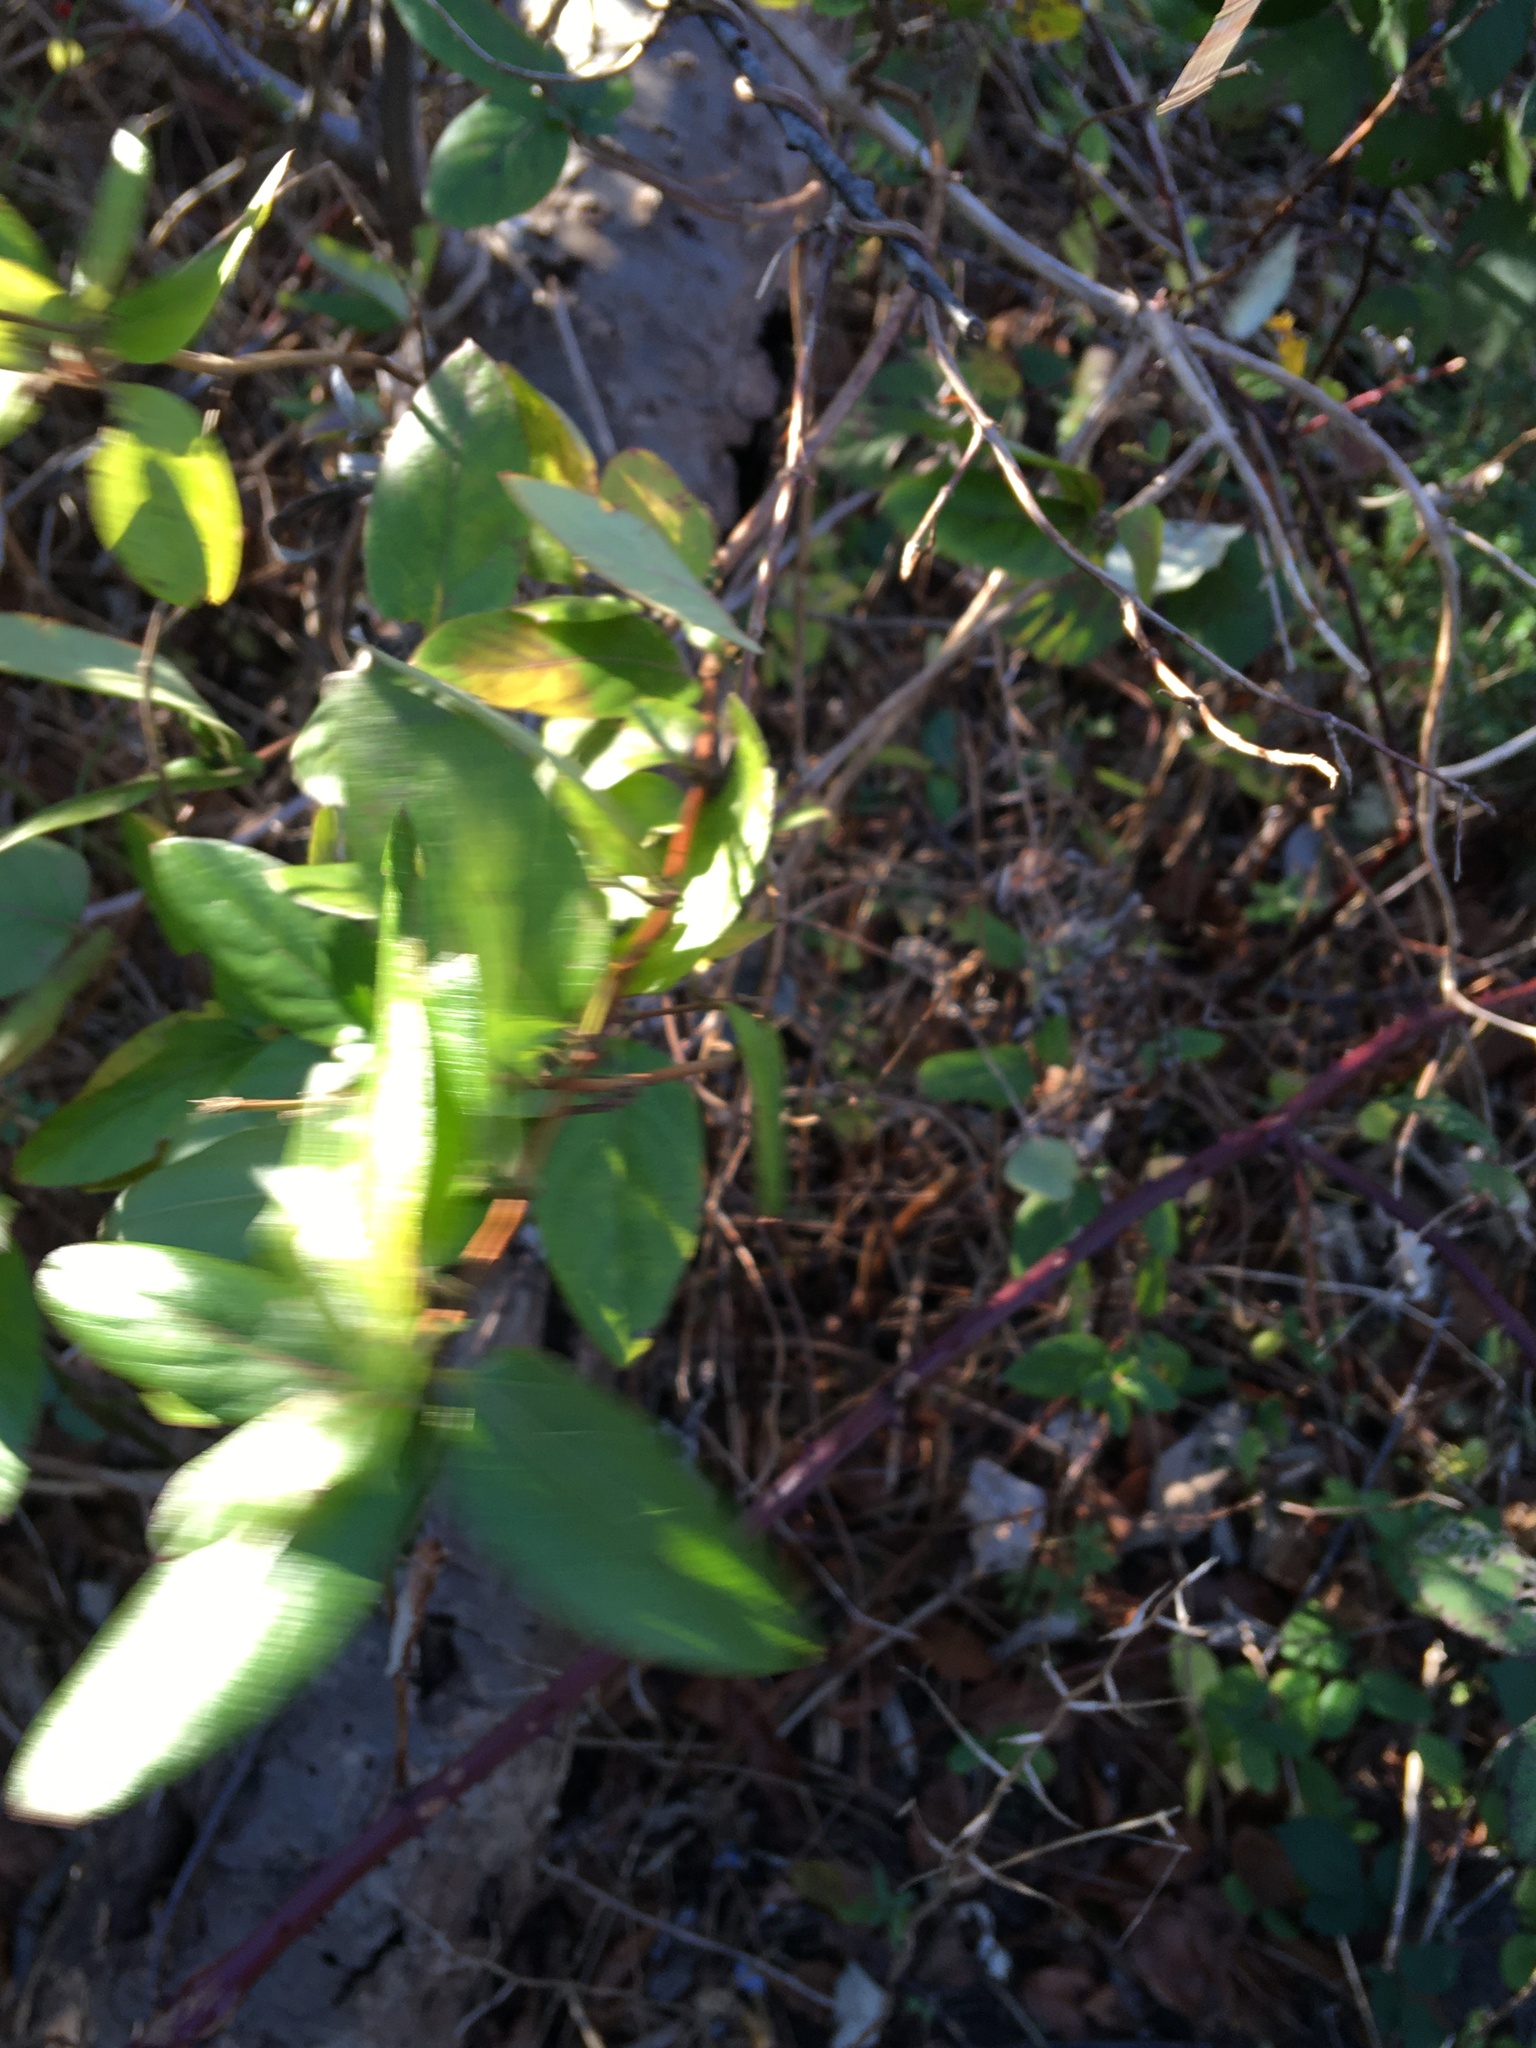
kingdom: Plantae
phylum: Tracheophyta
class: Magnoliopsida
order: Dipsacales
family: Caprifoliaceae
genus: Lonicera
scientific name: Lonicera japonica
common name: Japanese honeysuckle
